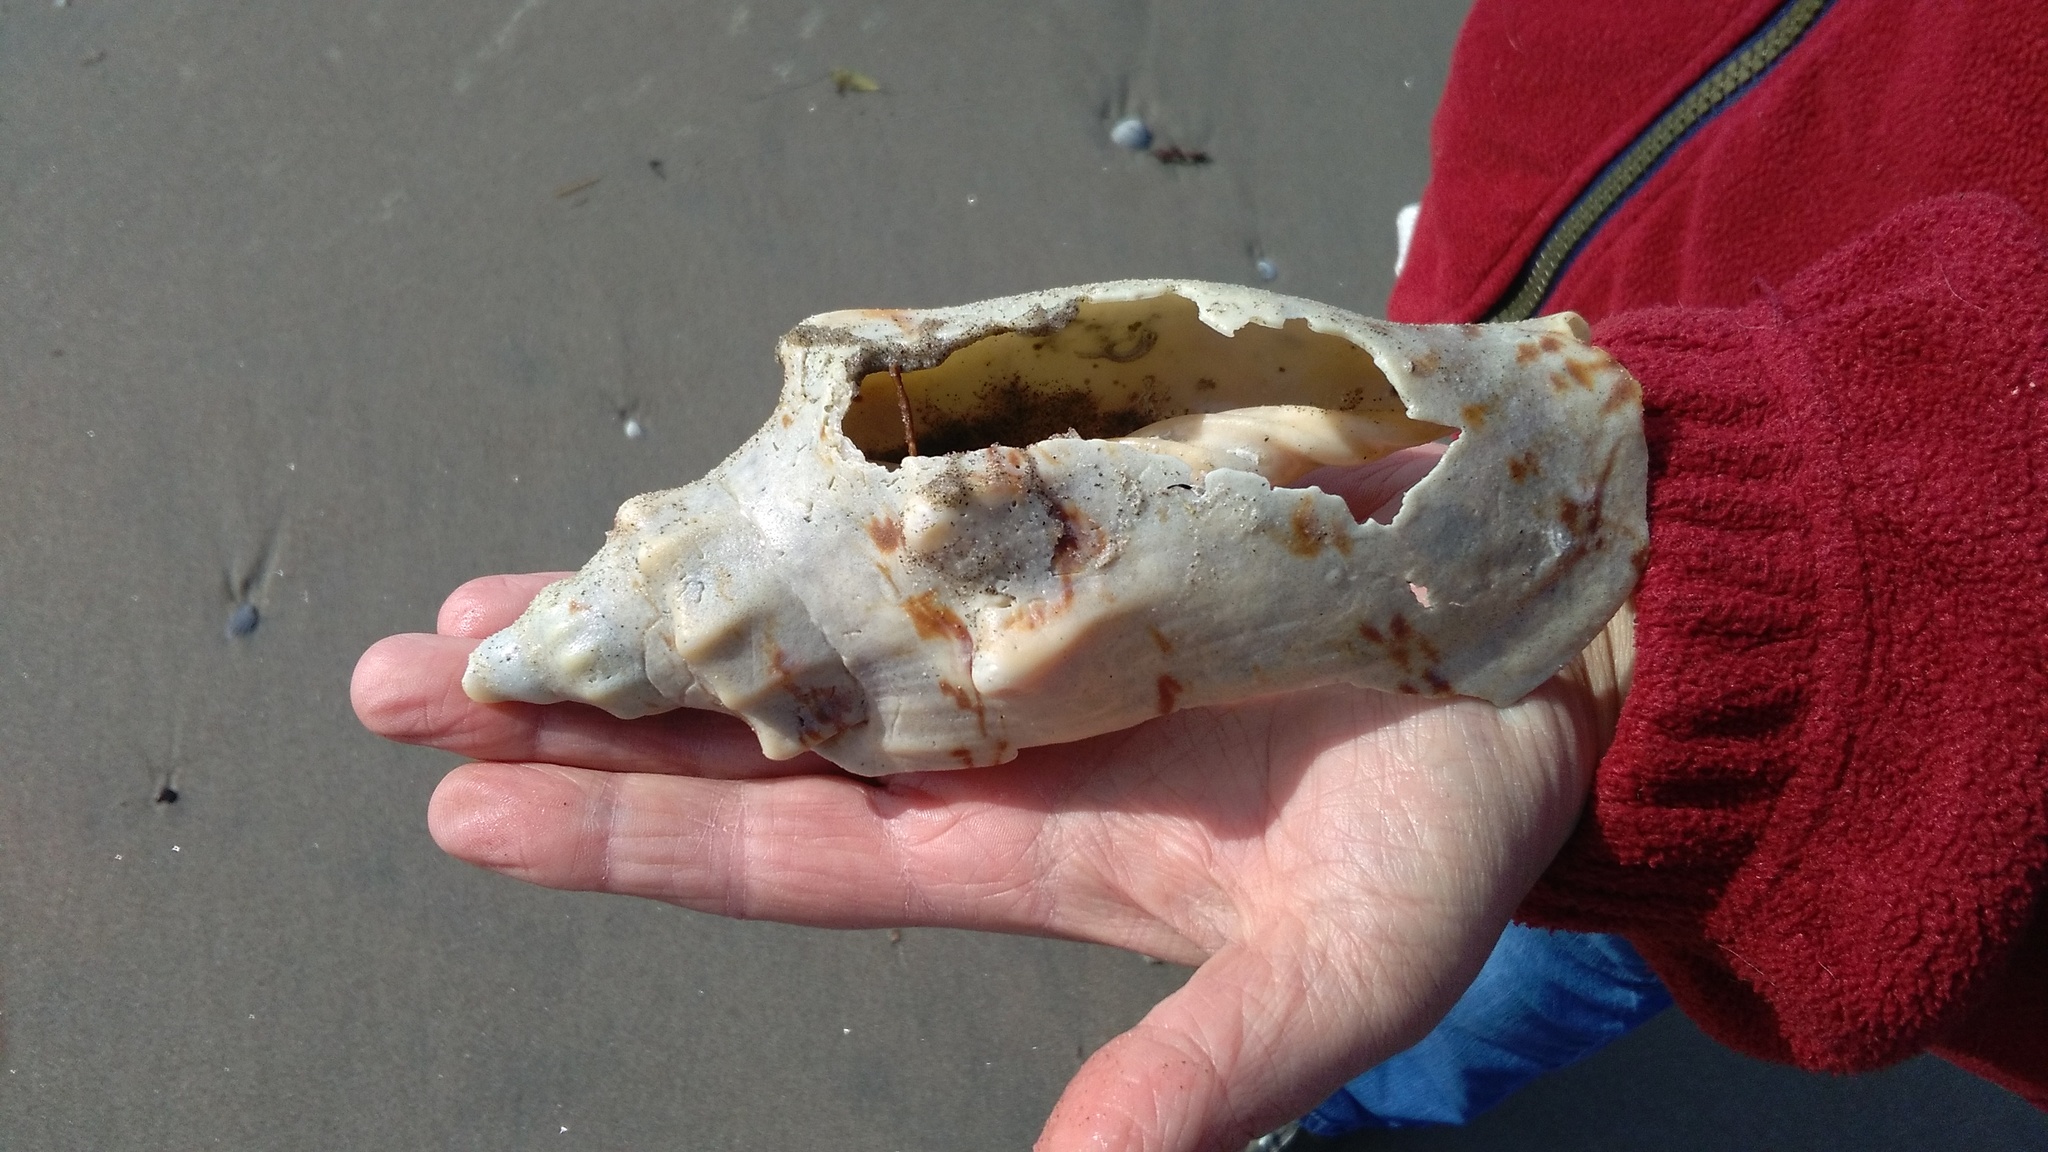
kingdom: Animalia
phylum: Mollusca
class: Gastropoda
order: Neogastropoda
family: Volutidae
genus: Alcithoe
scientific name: Alcithoe arabica
